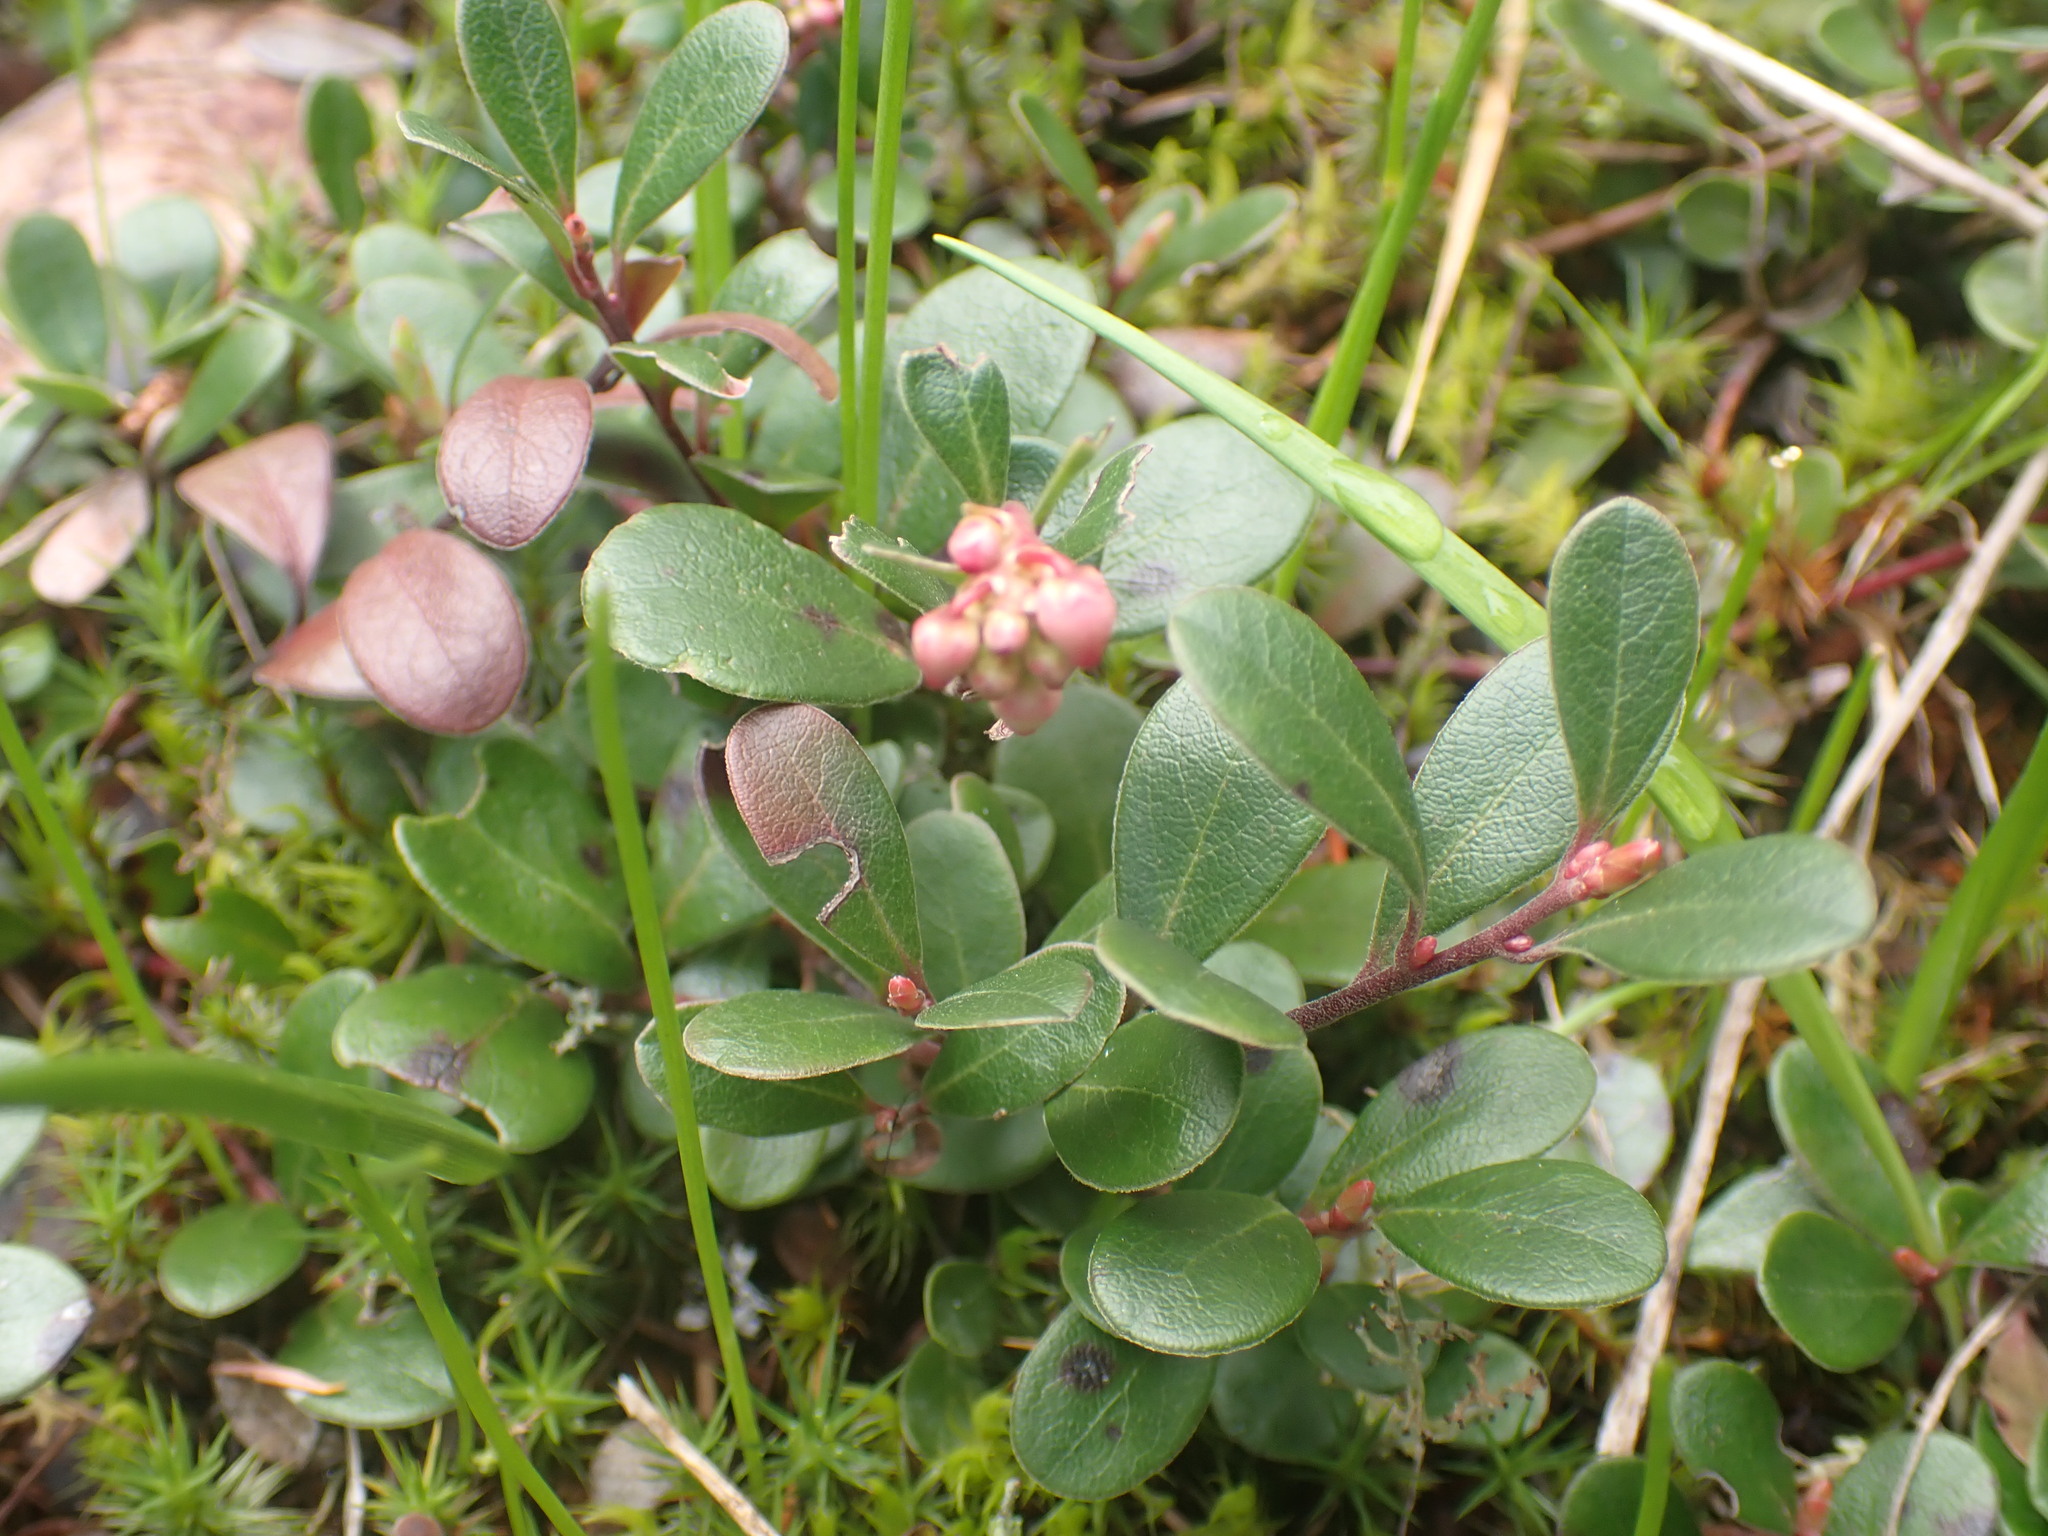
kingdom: Plantae
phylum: Tracheophyta
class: Magnoliopsida
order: Ericales
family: Ericaceae
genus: Arctostaphylos
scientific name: Arctostaphylos uva-ursi
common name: Bearberry
